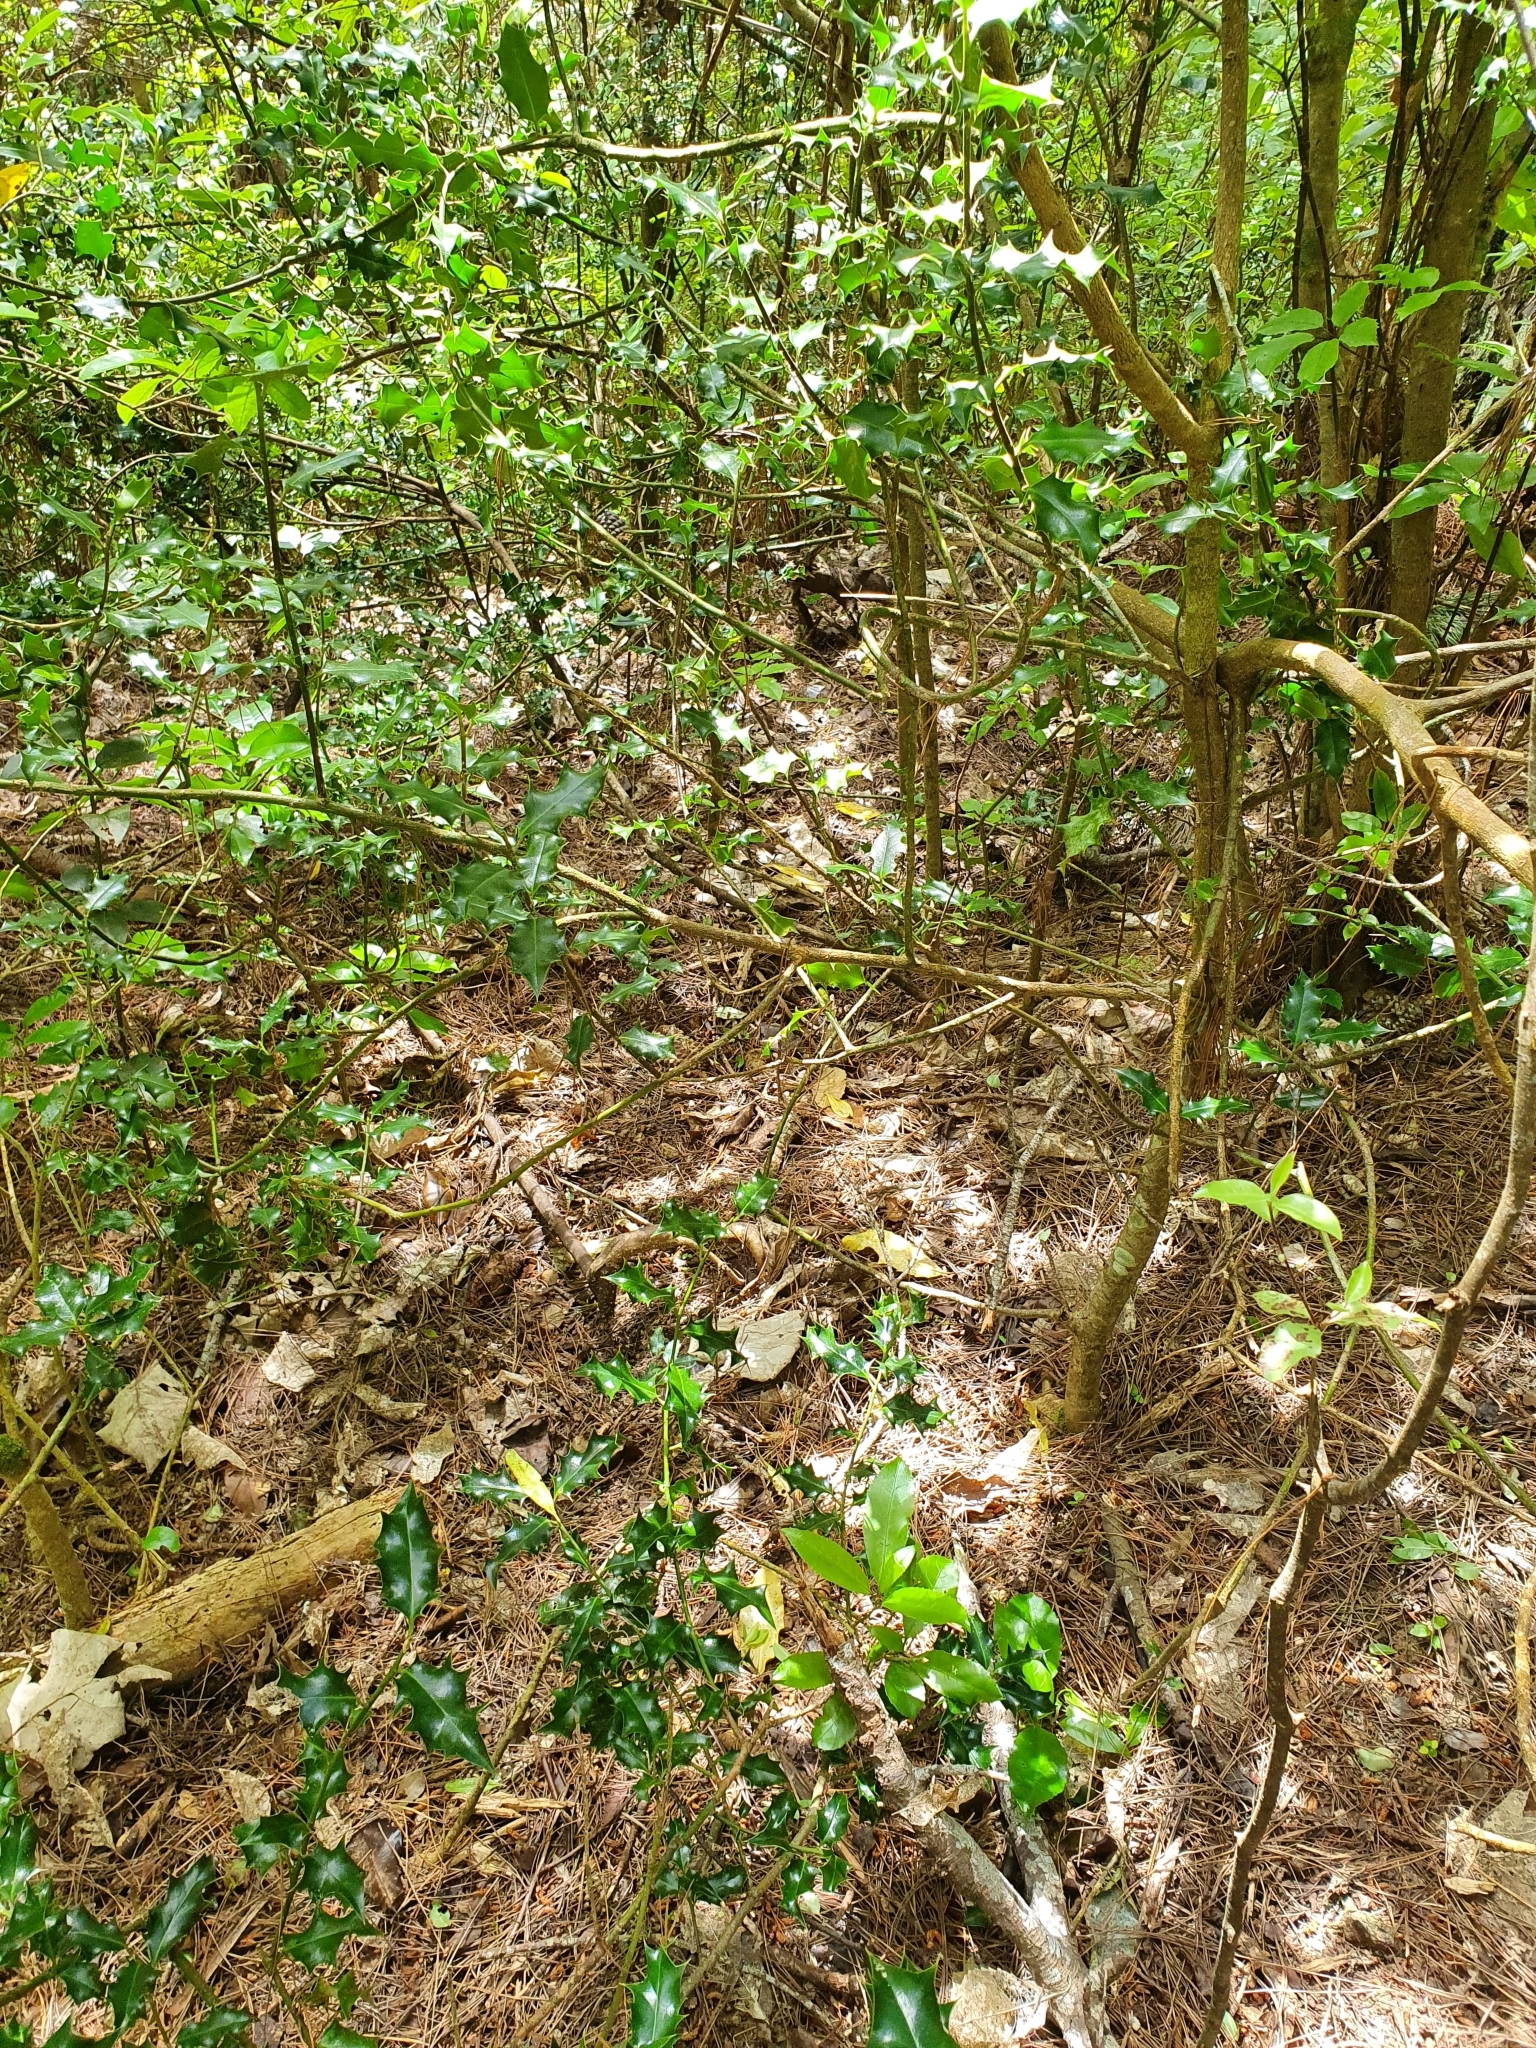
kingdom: Plantae
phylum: Tracheophyta
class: Magnoliopsida
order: Aquifoliales
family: Aquifoliaceae
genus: Ilex
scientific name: Ilex aquifolium
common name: English holly
